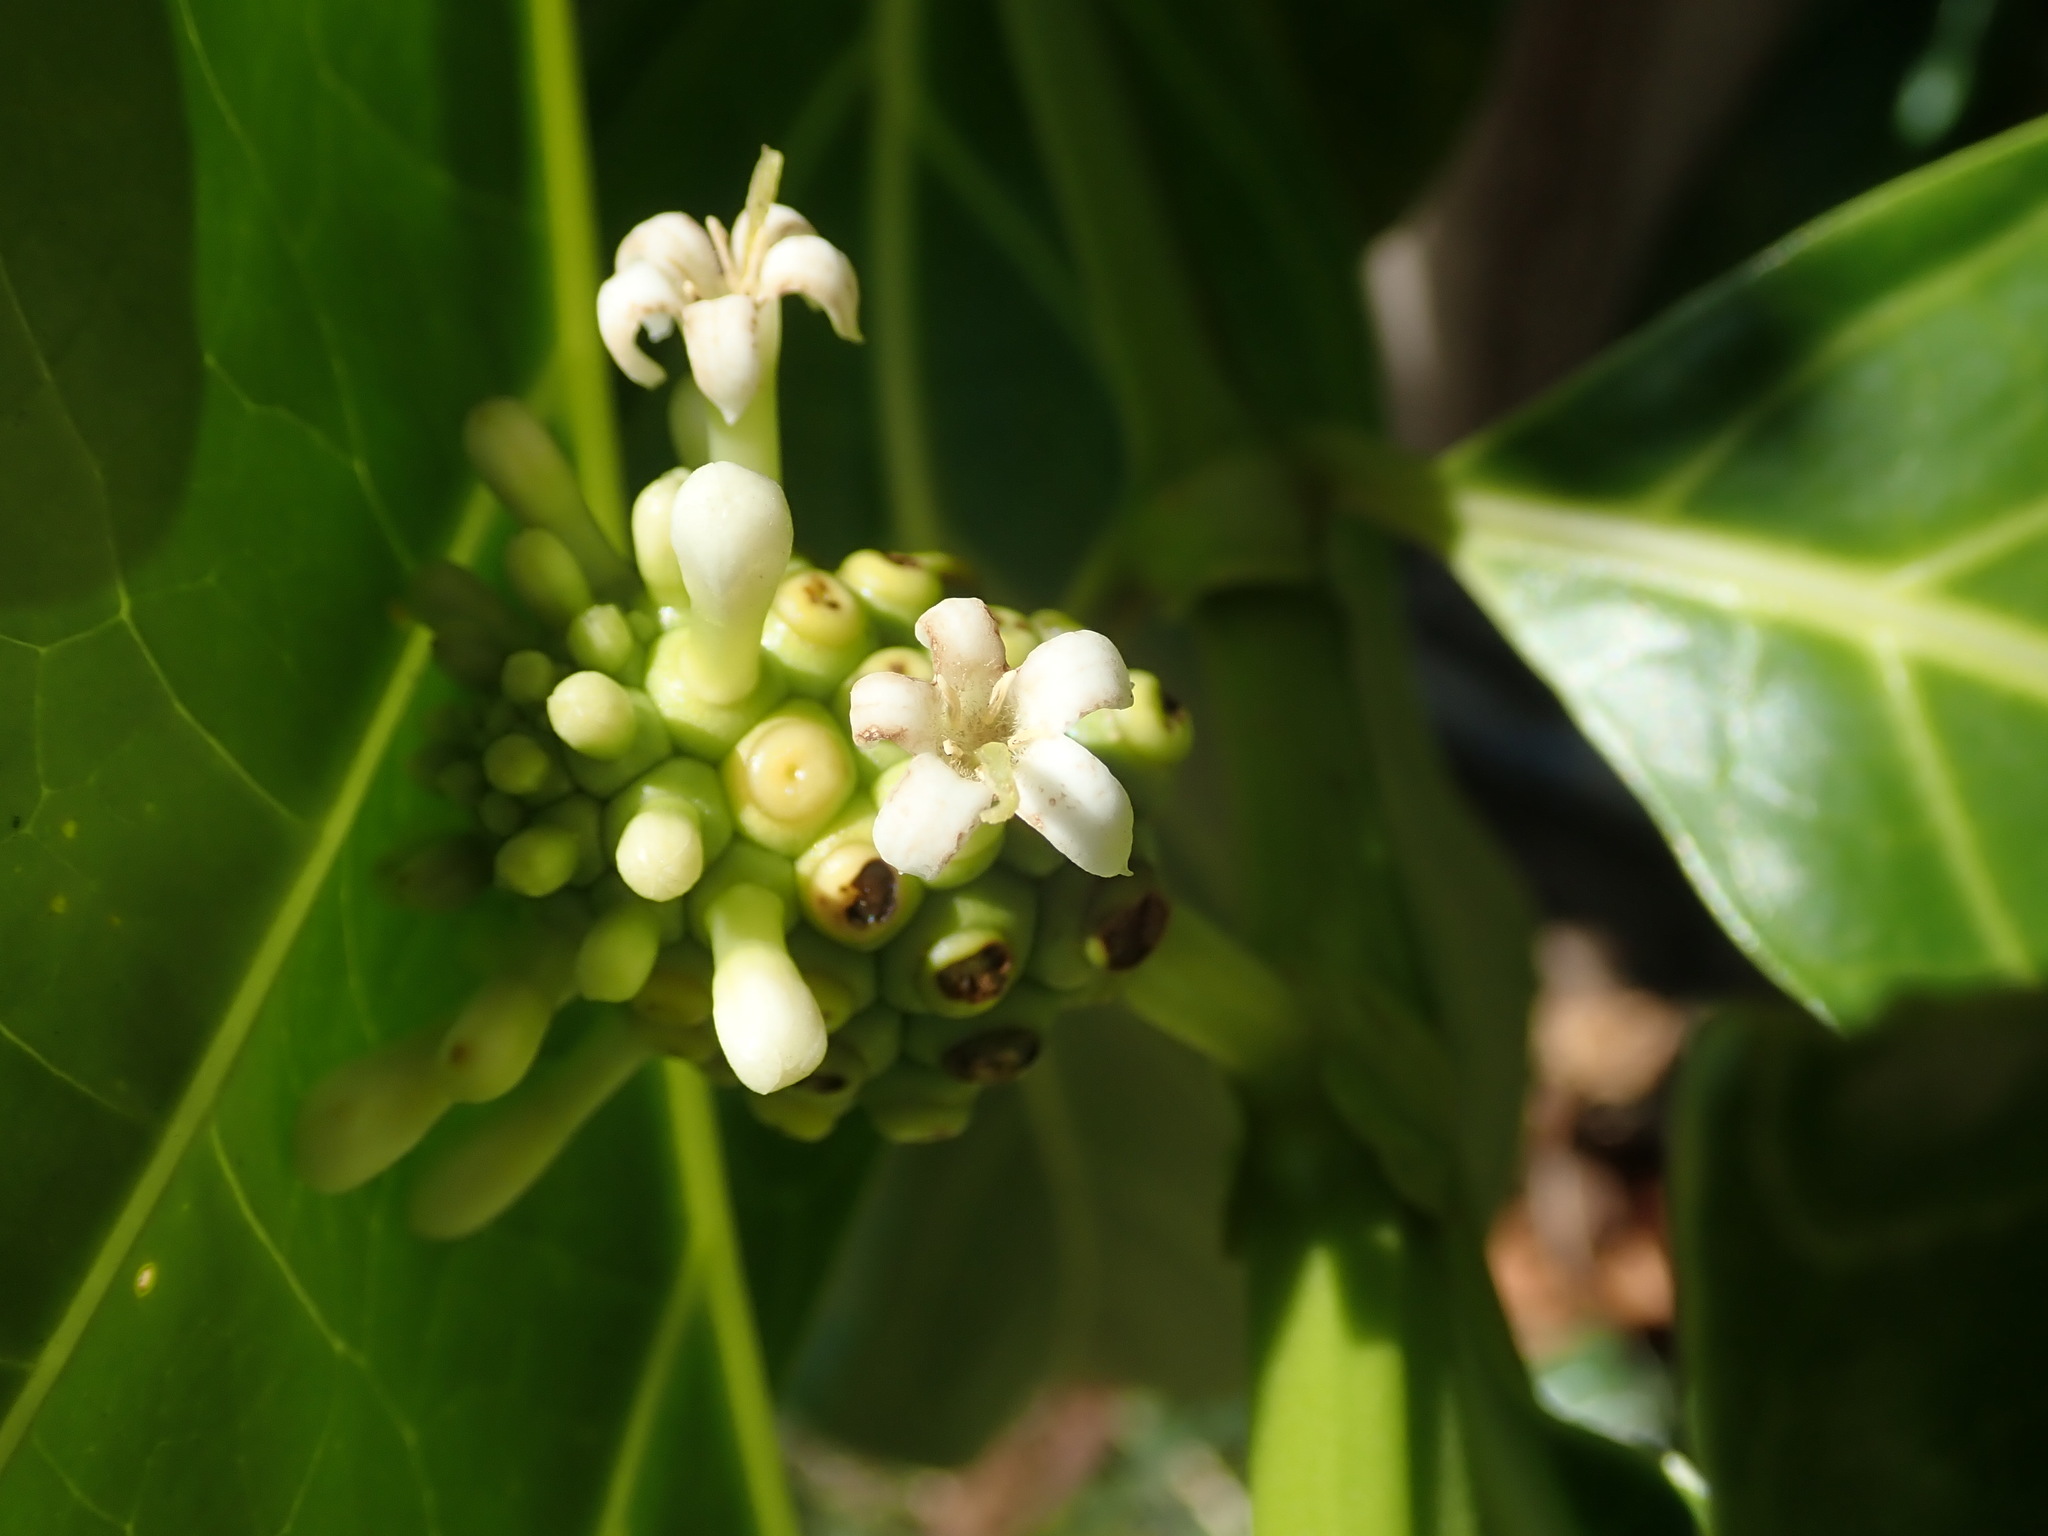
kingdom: Plantae
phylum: Tracheophyta
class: Magnoliopsida
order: Gentianales
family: Rubiaceae
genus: Morinda
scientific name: Morinda citrifolia
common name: Indian-mulberry
